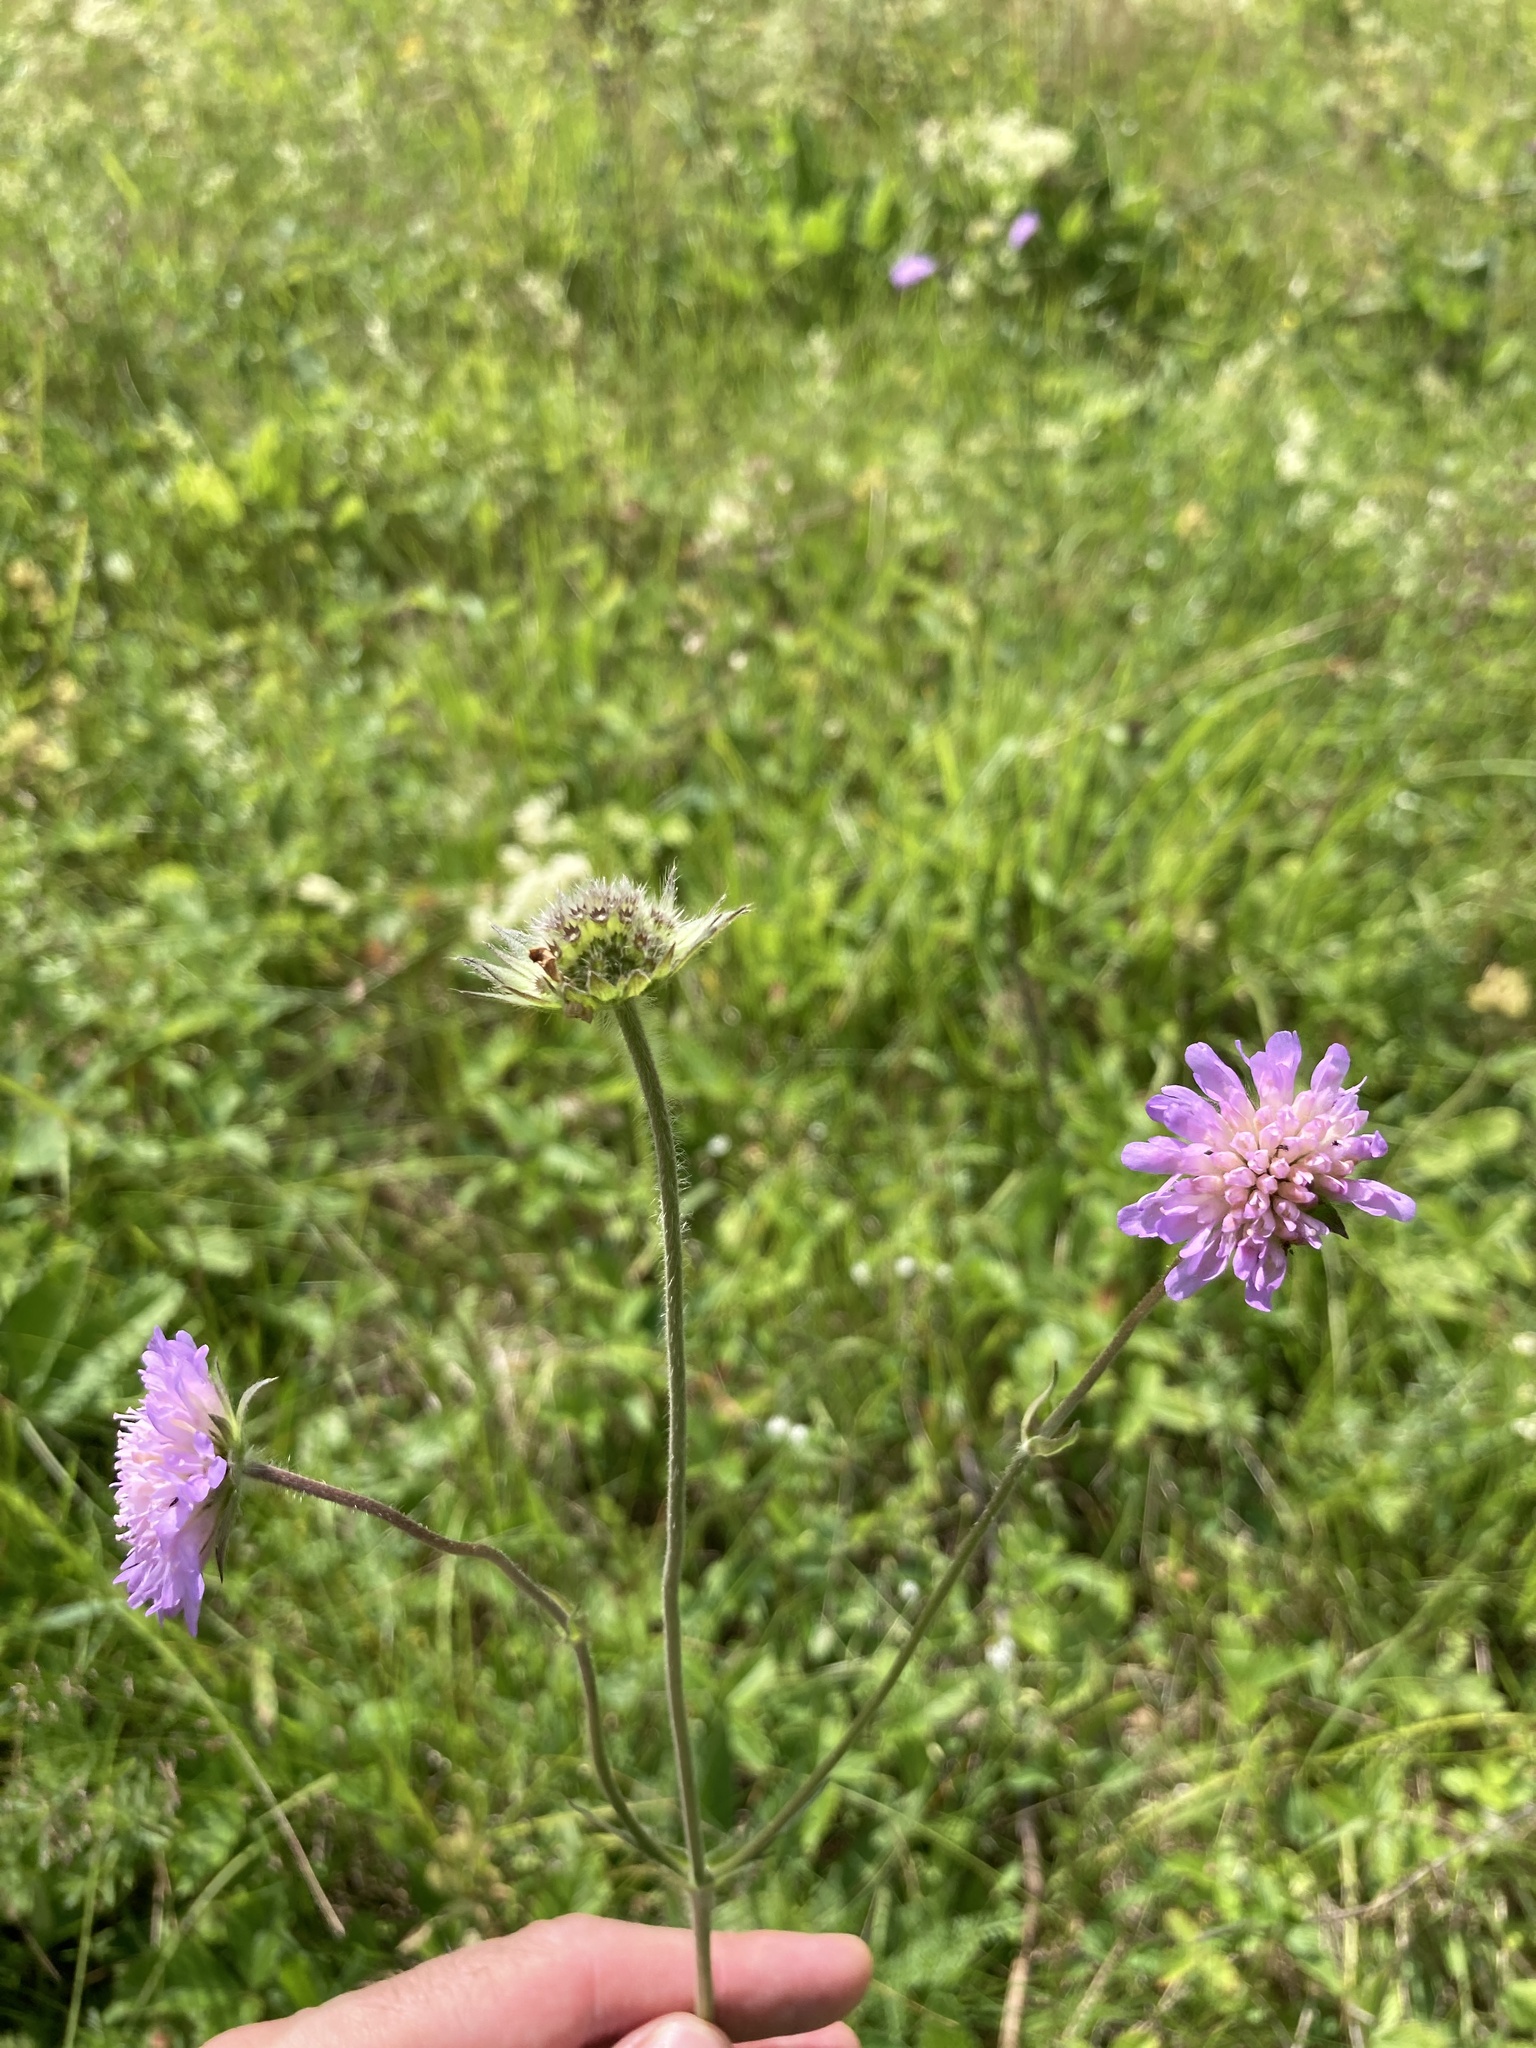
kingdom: Plantae
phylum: Tracheophyta
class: Magnoliopsida
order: Dipsacales
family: Caprifoliaceae
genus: Knautia
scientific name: Knautia arvensis
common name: Field scabiosa
